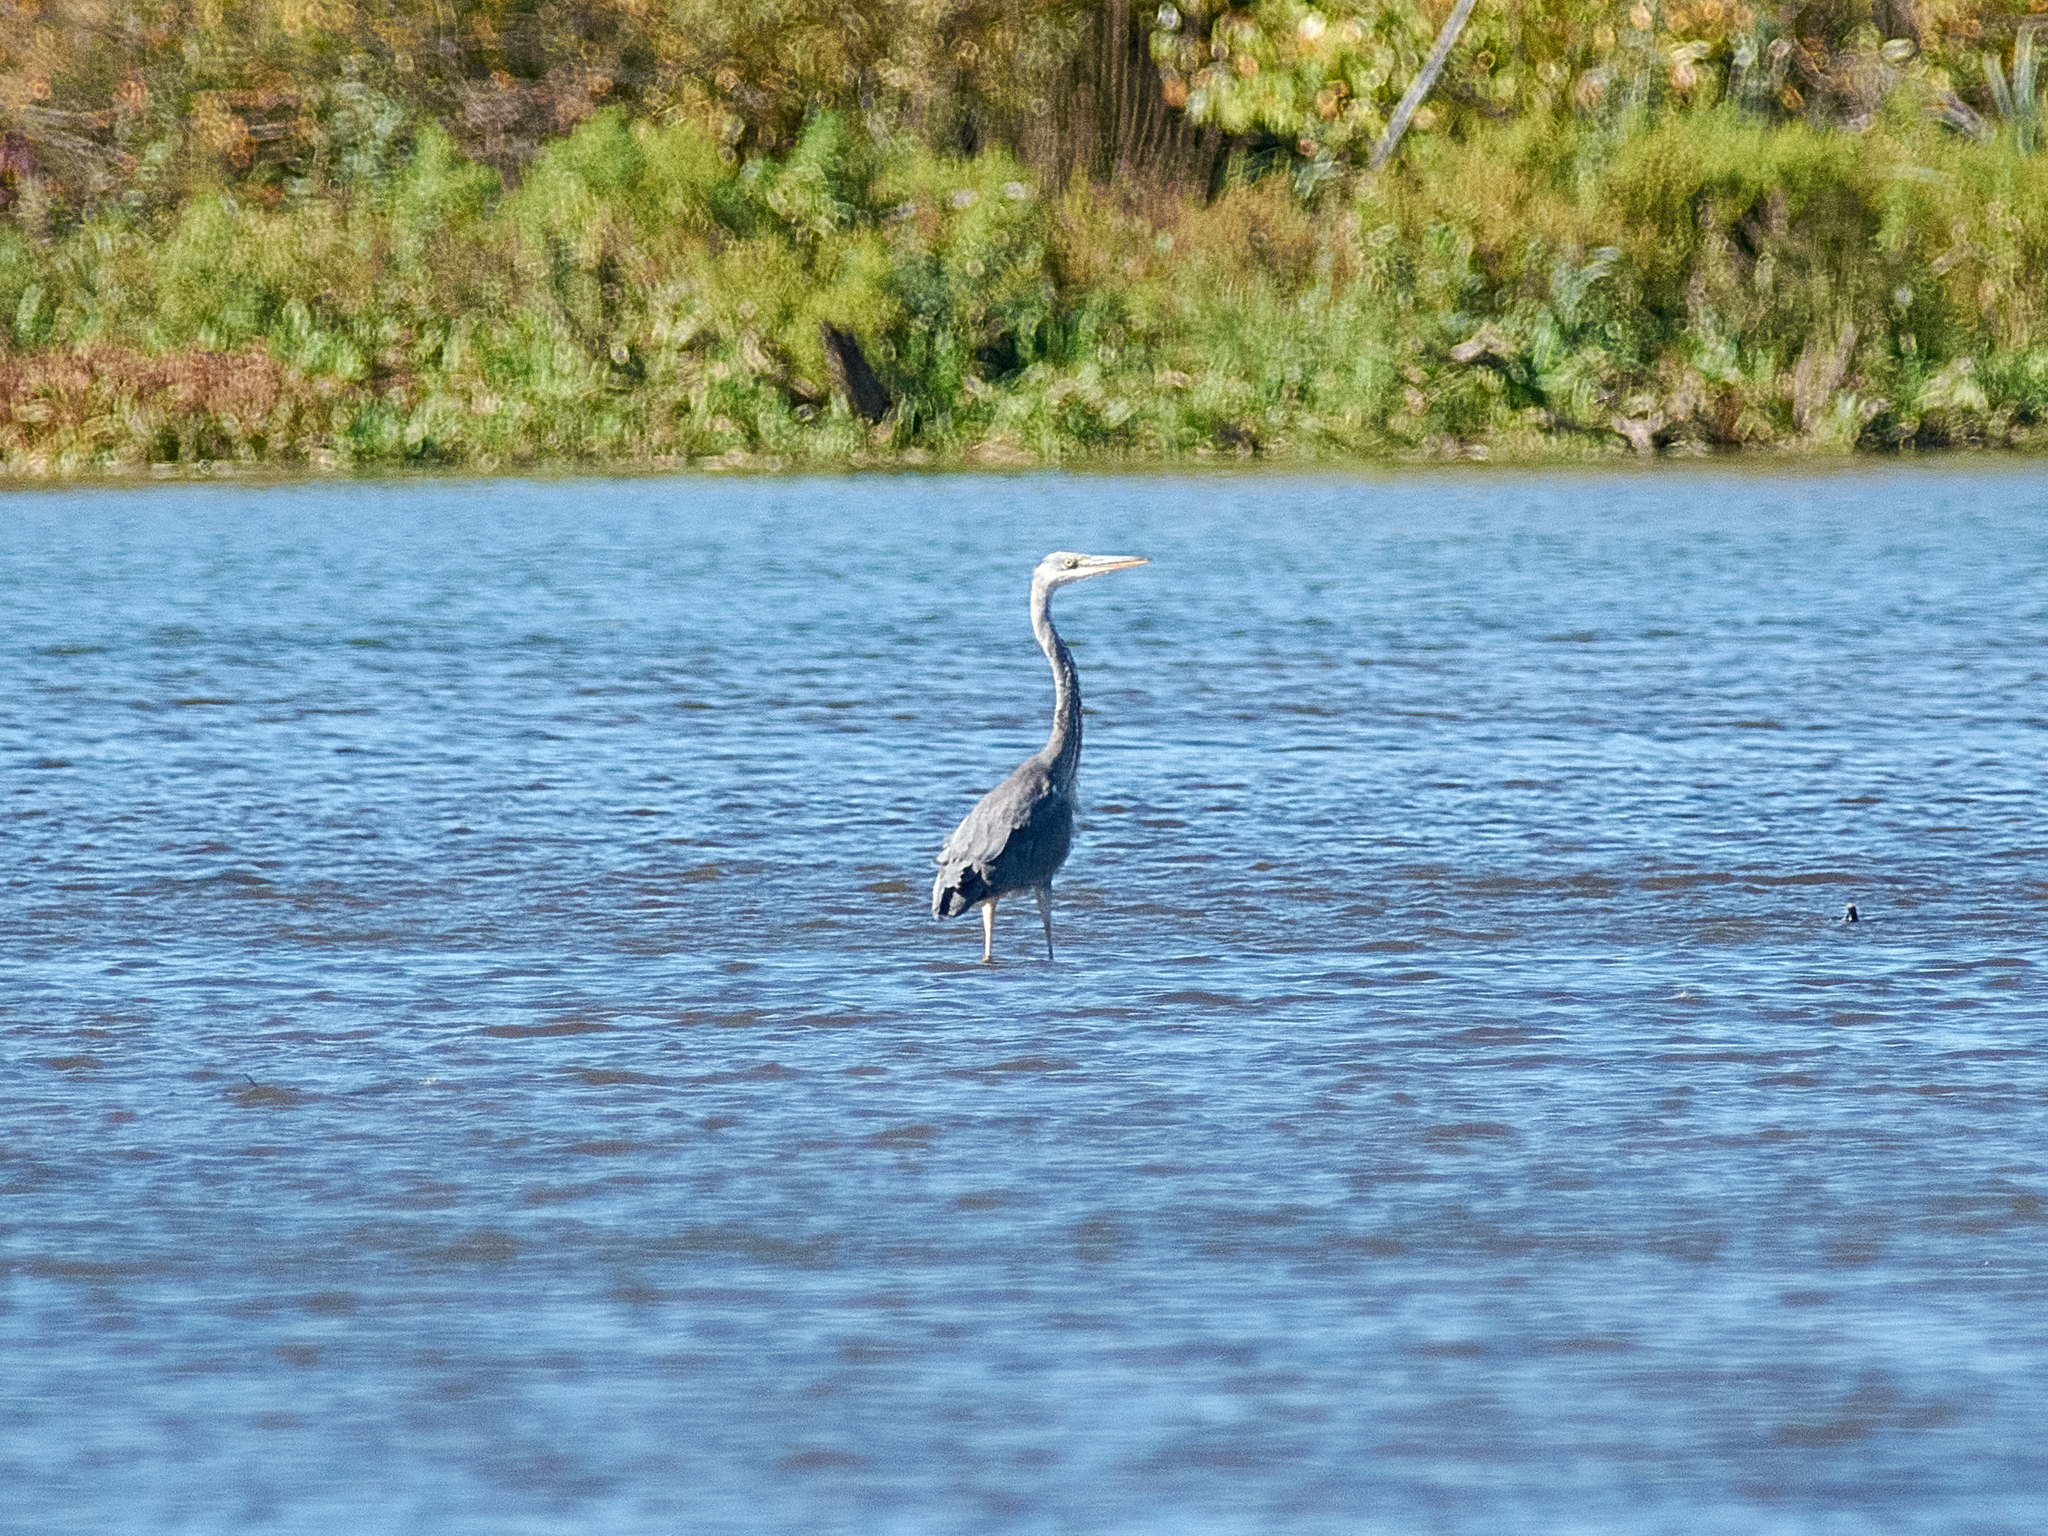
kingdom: Animalia
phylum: Chordata
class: Aves
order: Pelecaniformes
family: Ardeidae
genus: Ardea
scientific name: Ardea cinerea
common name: Grey heron
